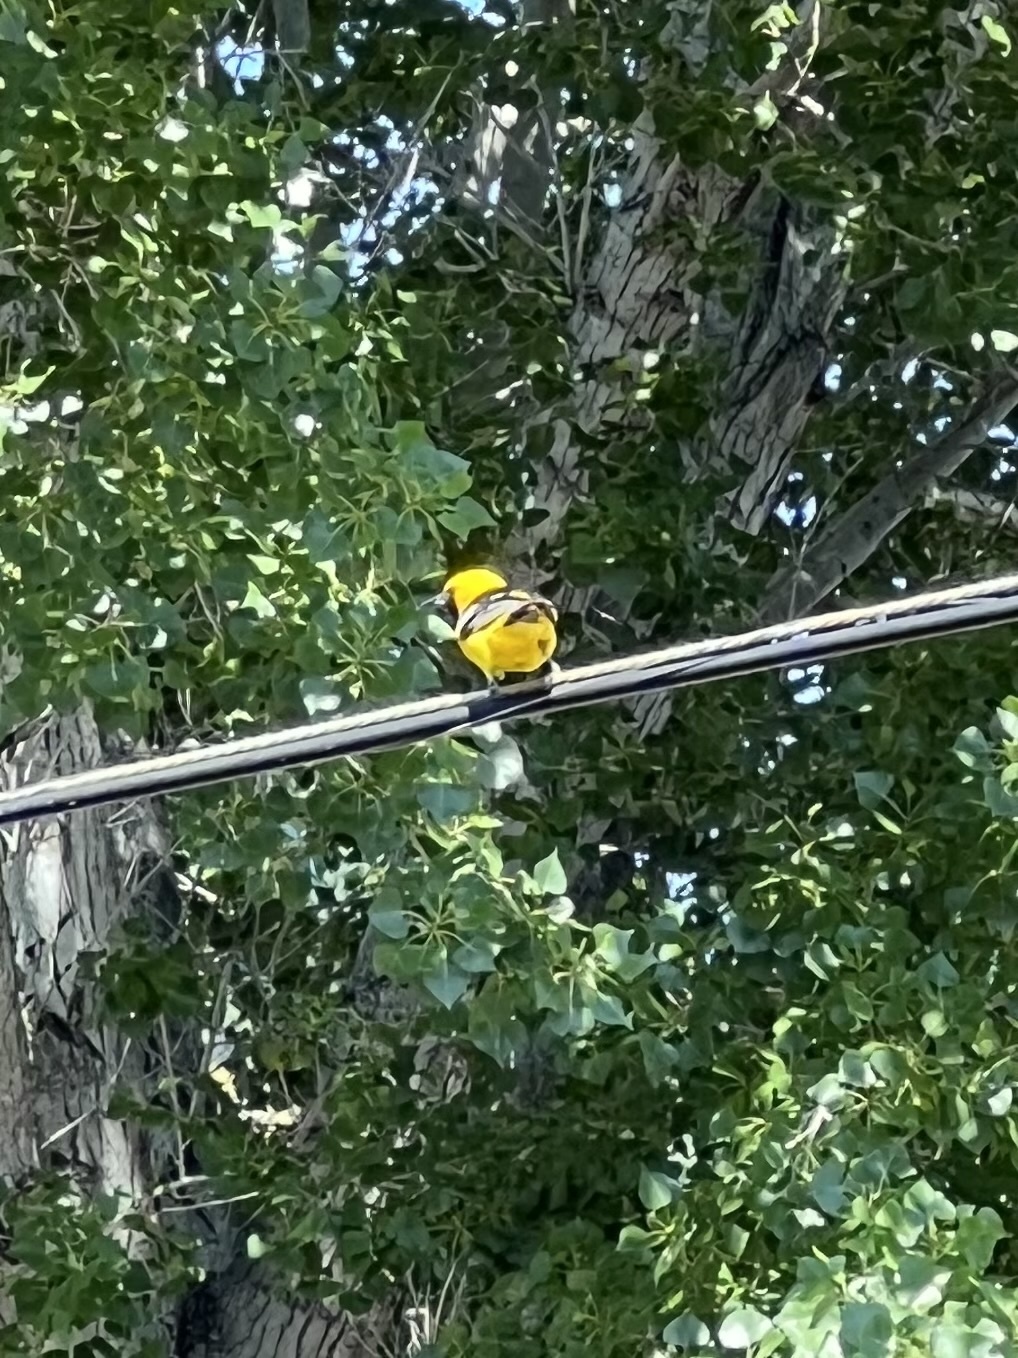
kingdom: Animalia
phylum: Chordata
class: Aves
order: Passeriformes
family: Icteridae
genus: Icterus
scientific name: Icterus cucullatus
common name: Hooded oriole
